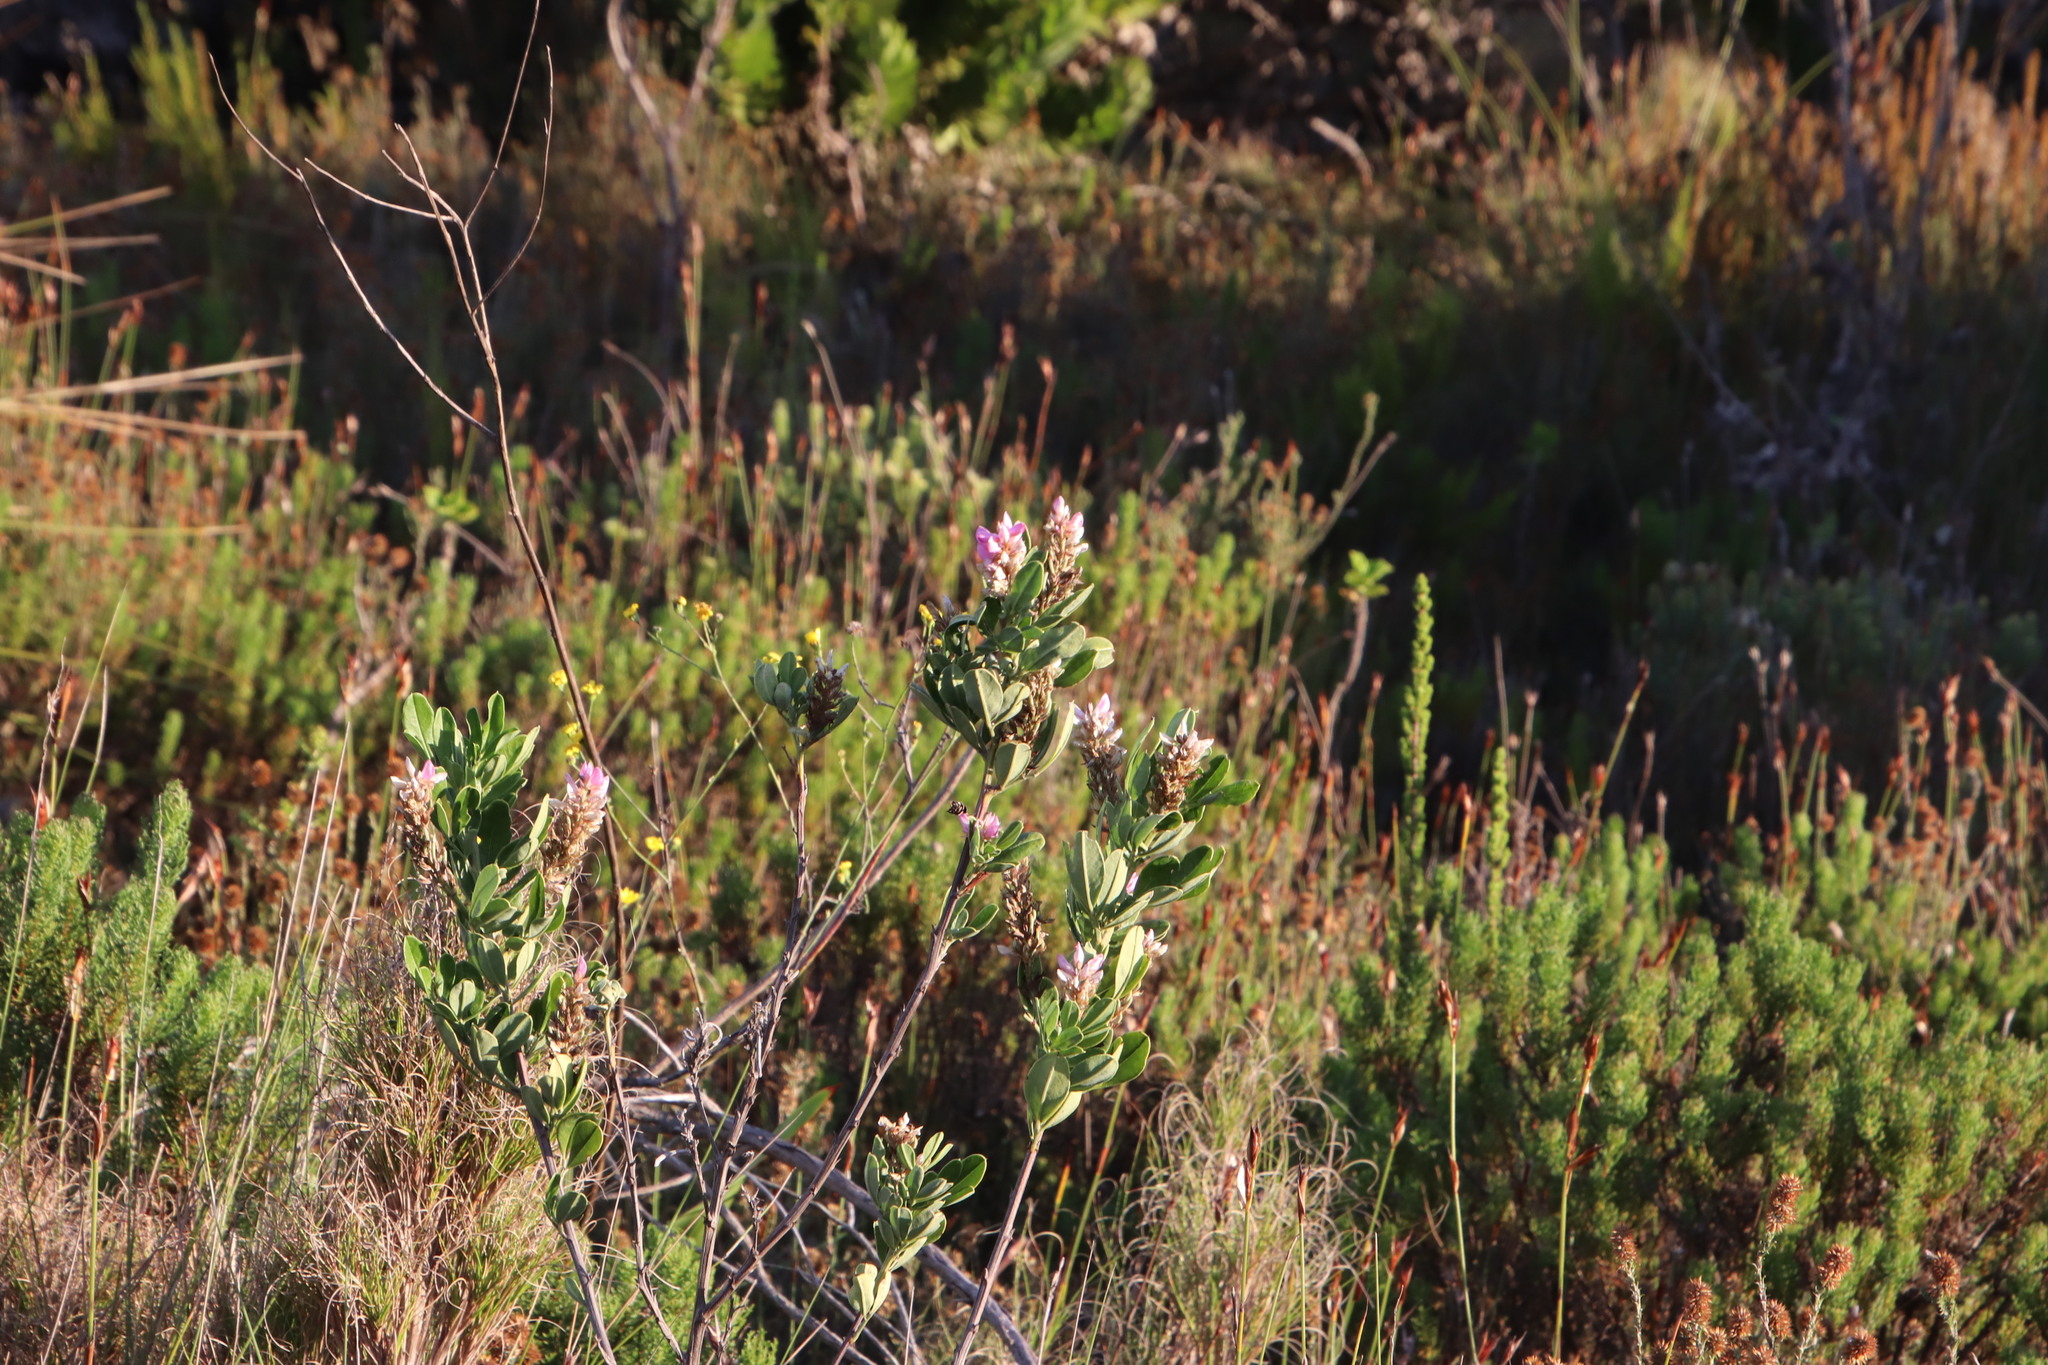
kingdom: Plantae
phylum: Tracheophyta
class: Magnoliopsida
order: Fabales
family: Fabaceae
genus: Indigofera
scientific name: Indigofera cytisoides
